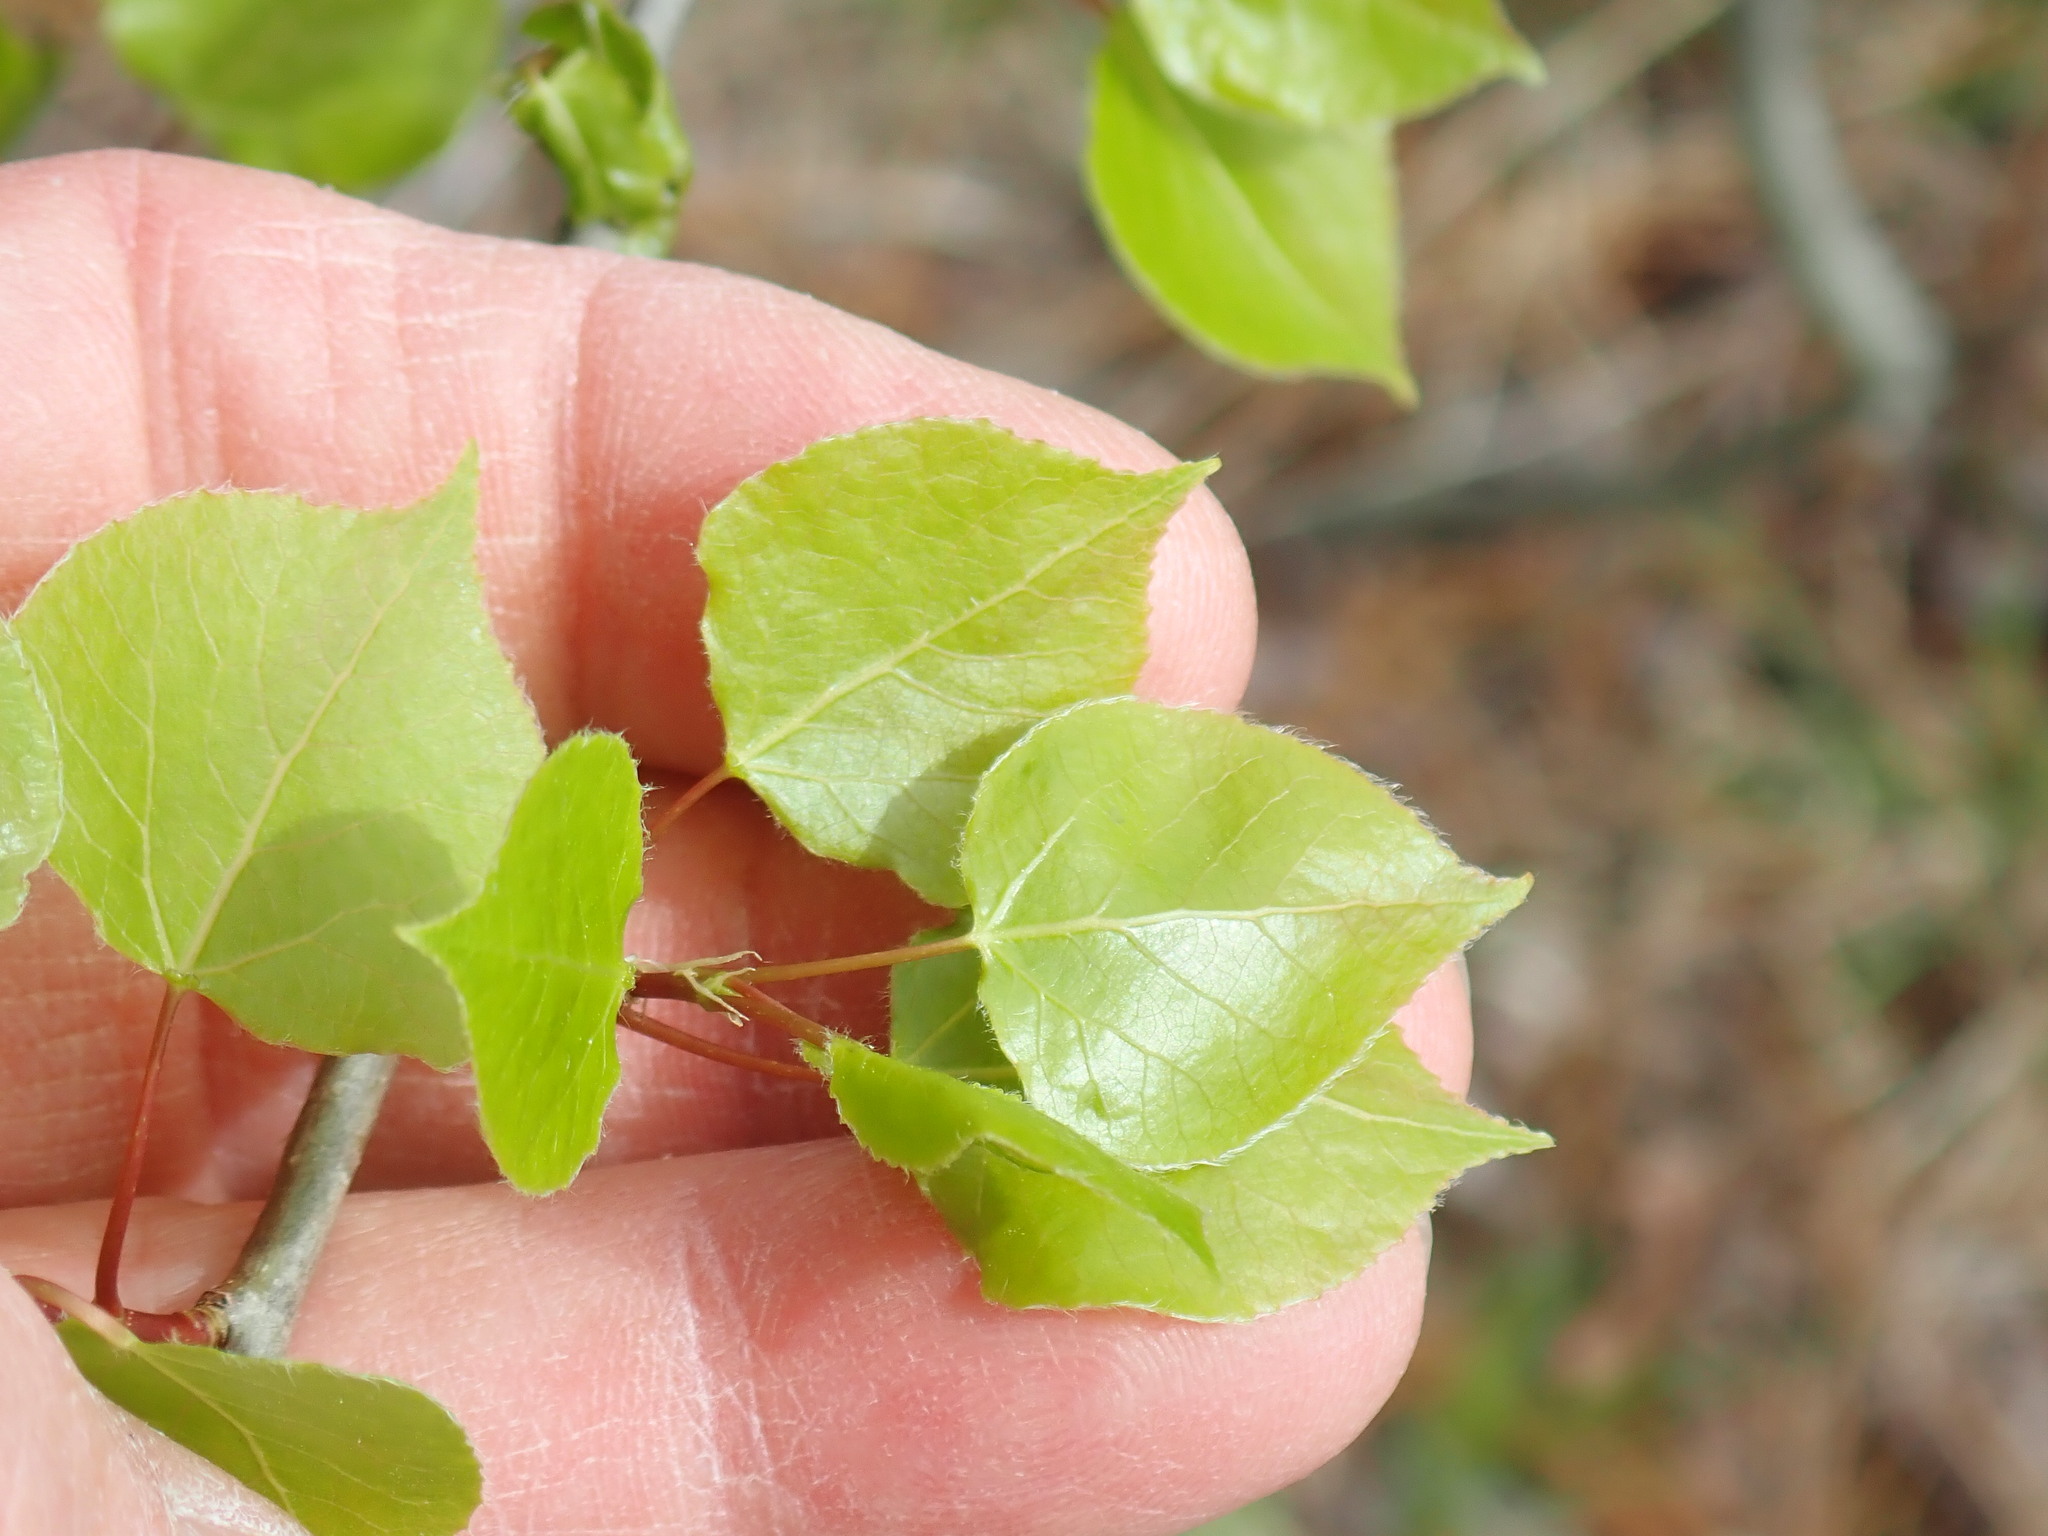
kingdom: Plantae
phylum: Tracheophyta
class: Magnoliopsida
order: Malpighiales
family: Salicaceae
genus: Populus
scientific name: Populus tremuloides
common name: Quaking aspen
